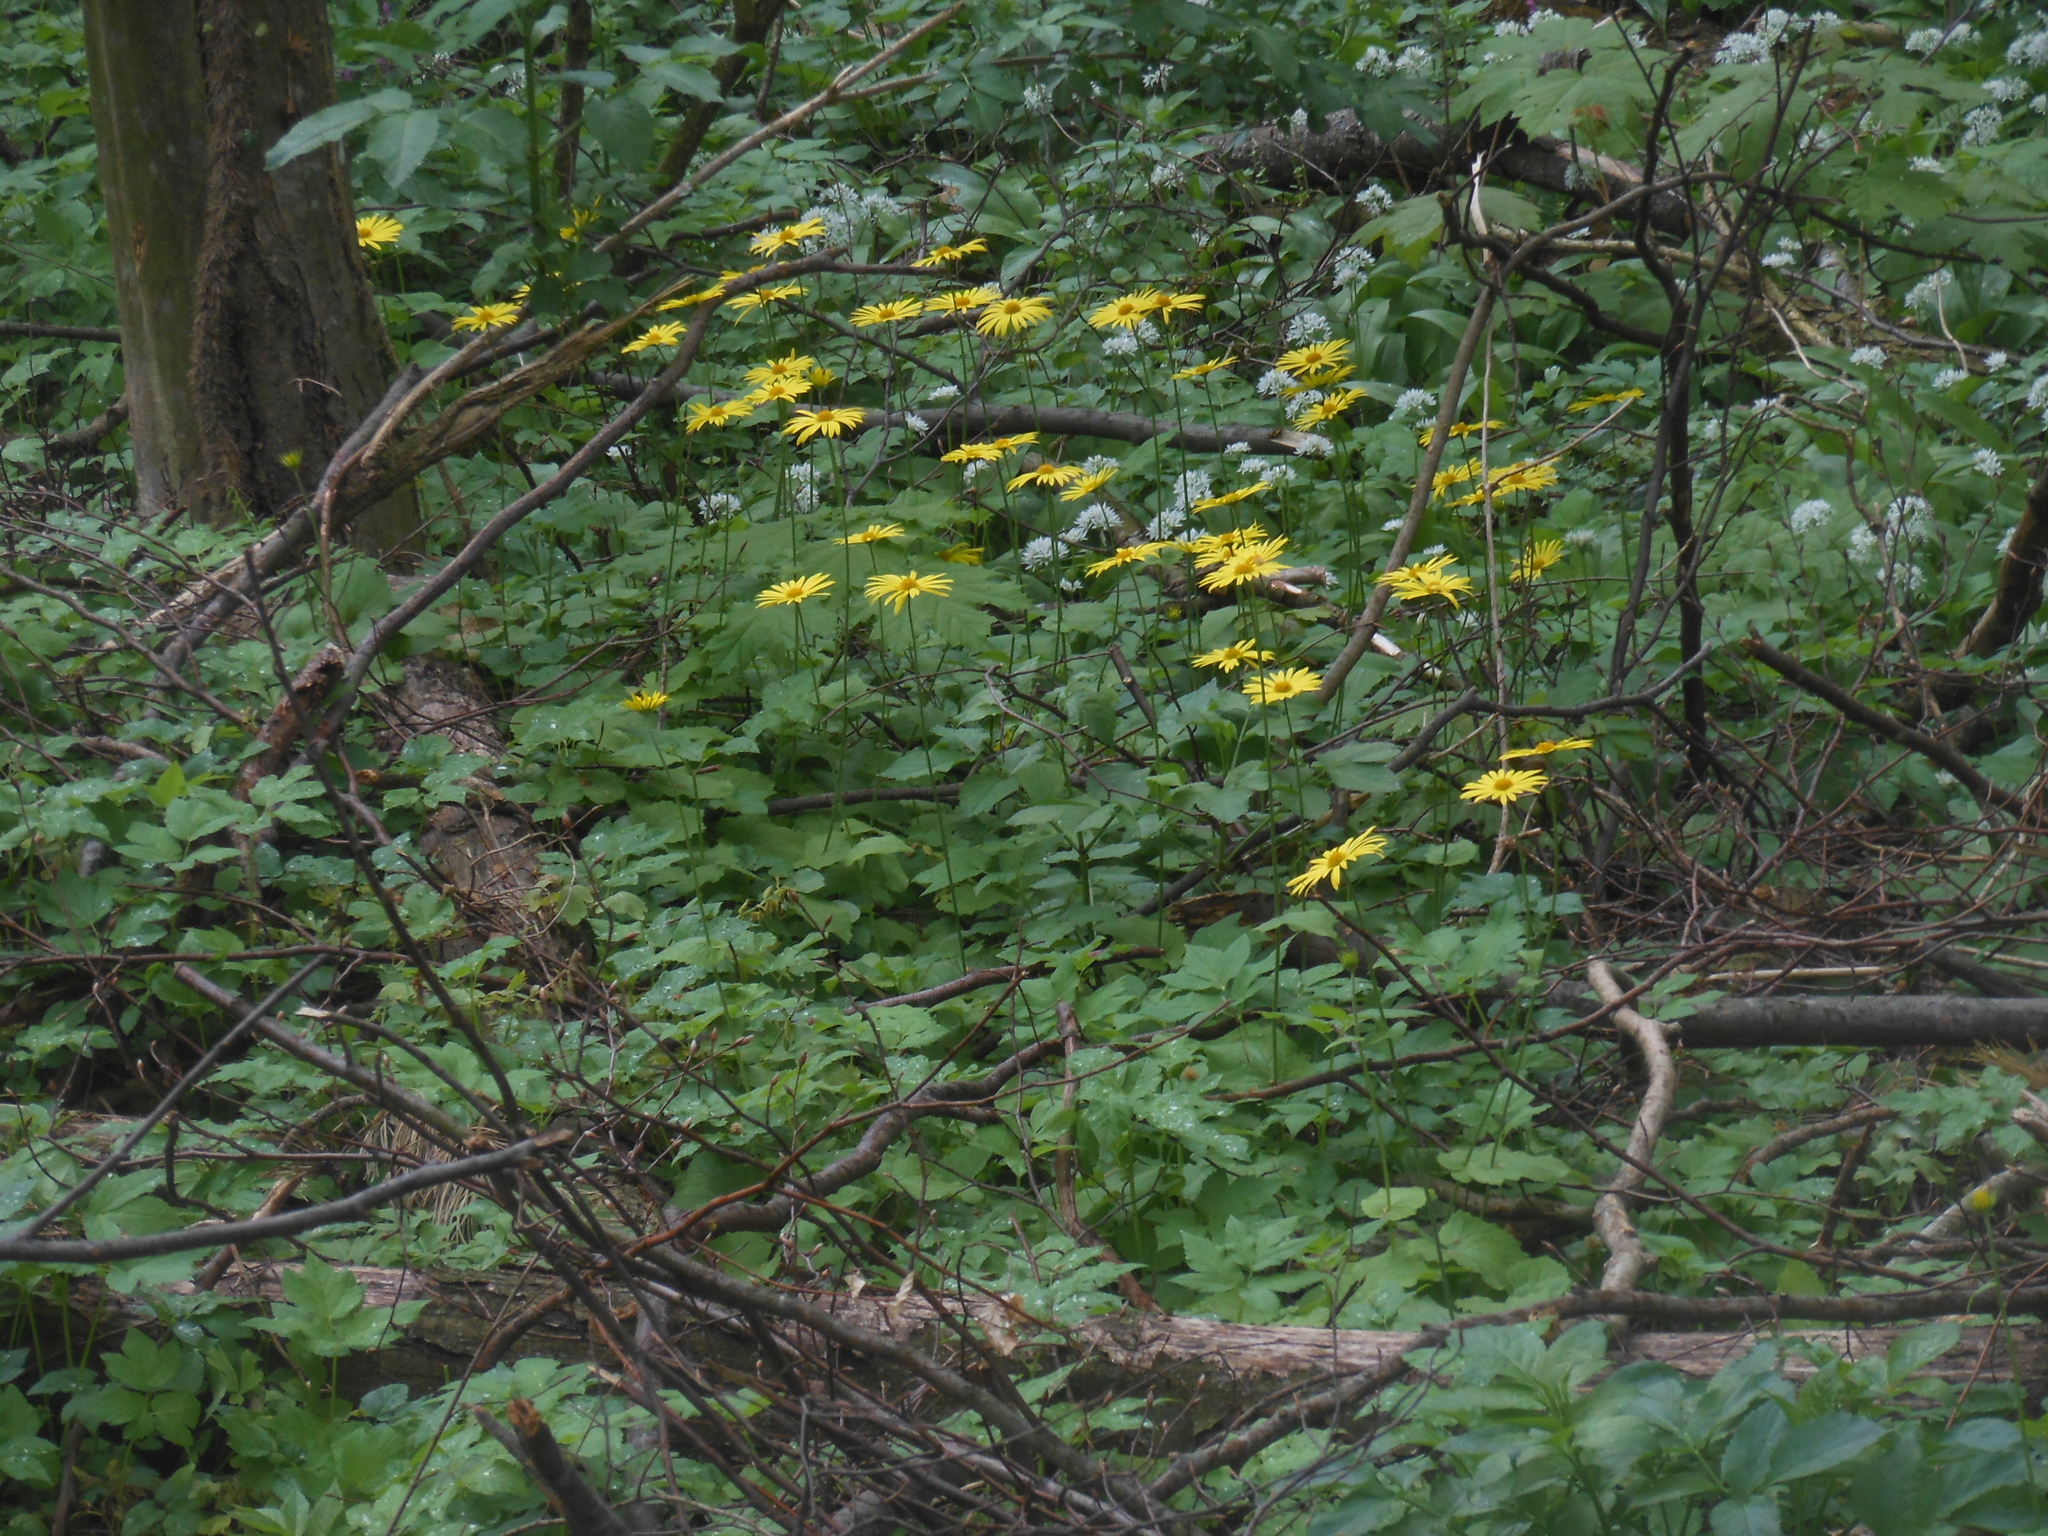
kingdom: Plantae
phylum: Tracheophyta
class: Magnoliopsida
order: Asterales
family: Asteraceae
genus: Doronicum
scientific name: Doronicum columnae
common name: Eastern leopard's-bane
